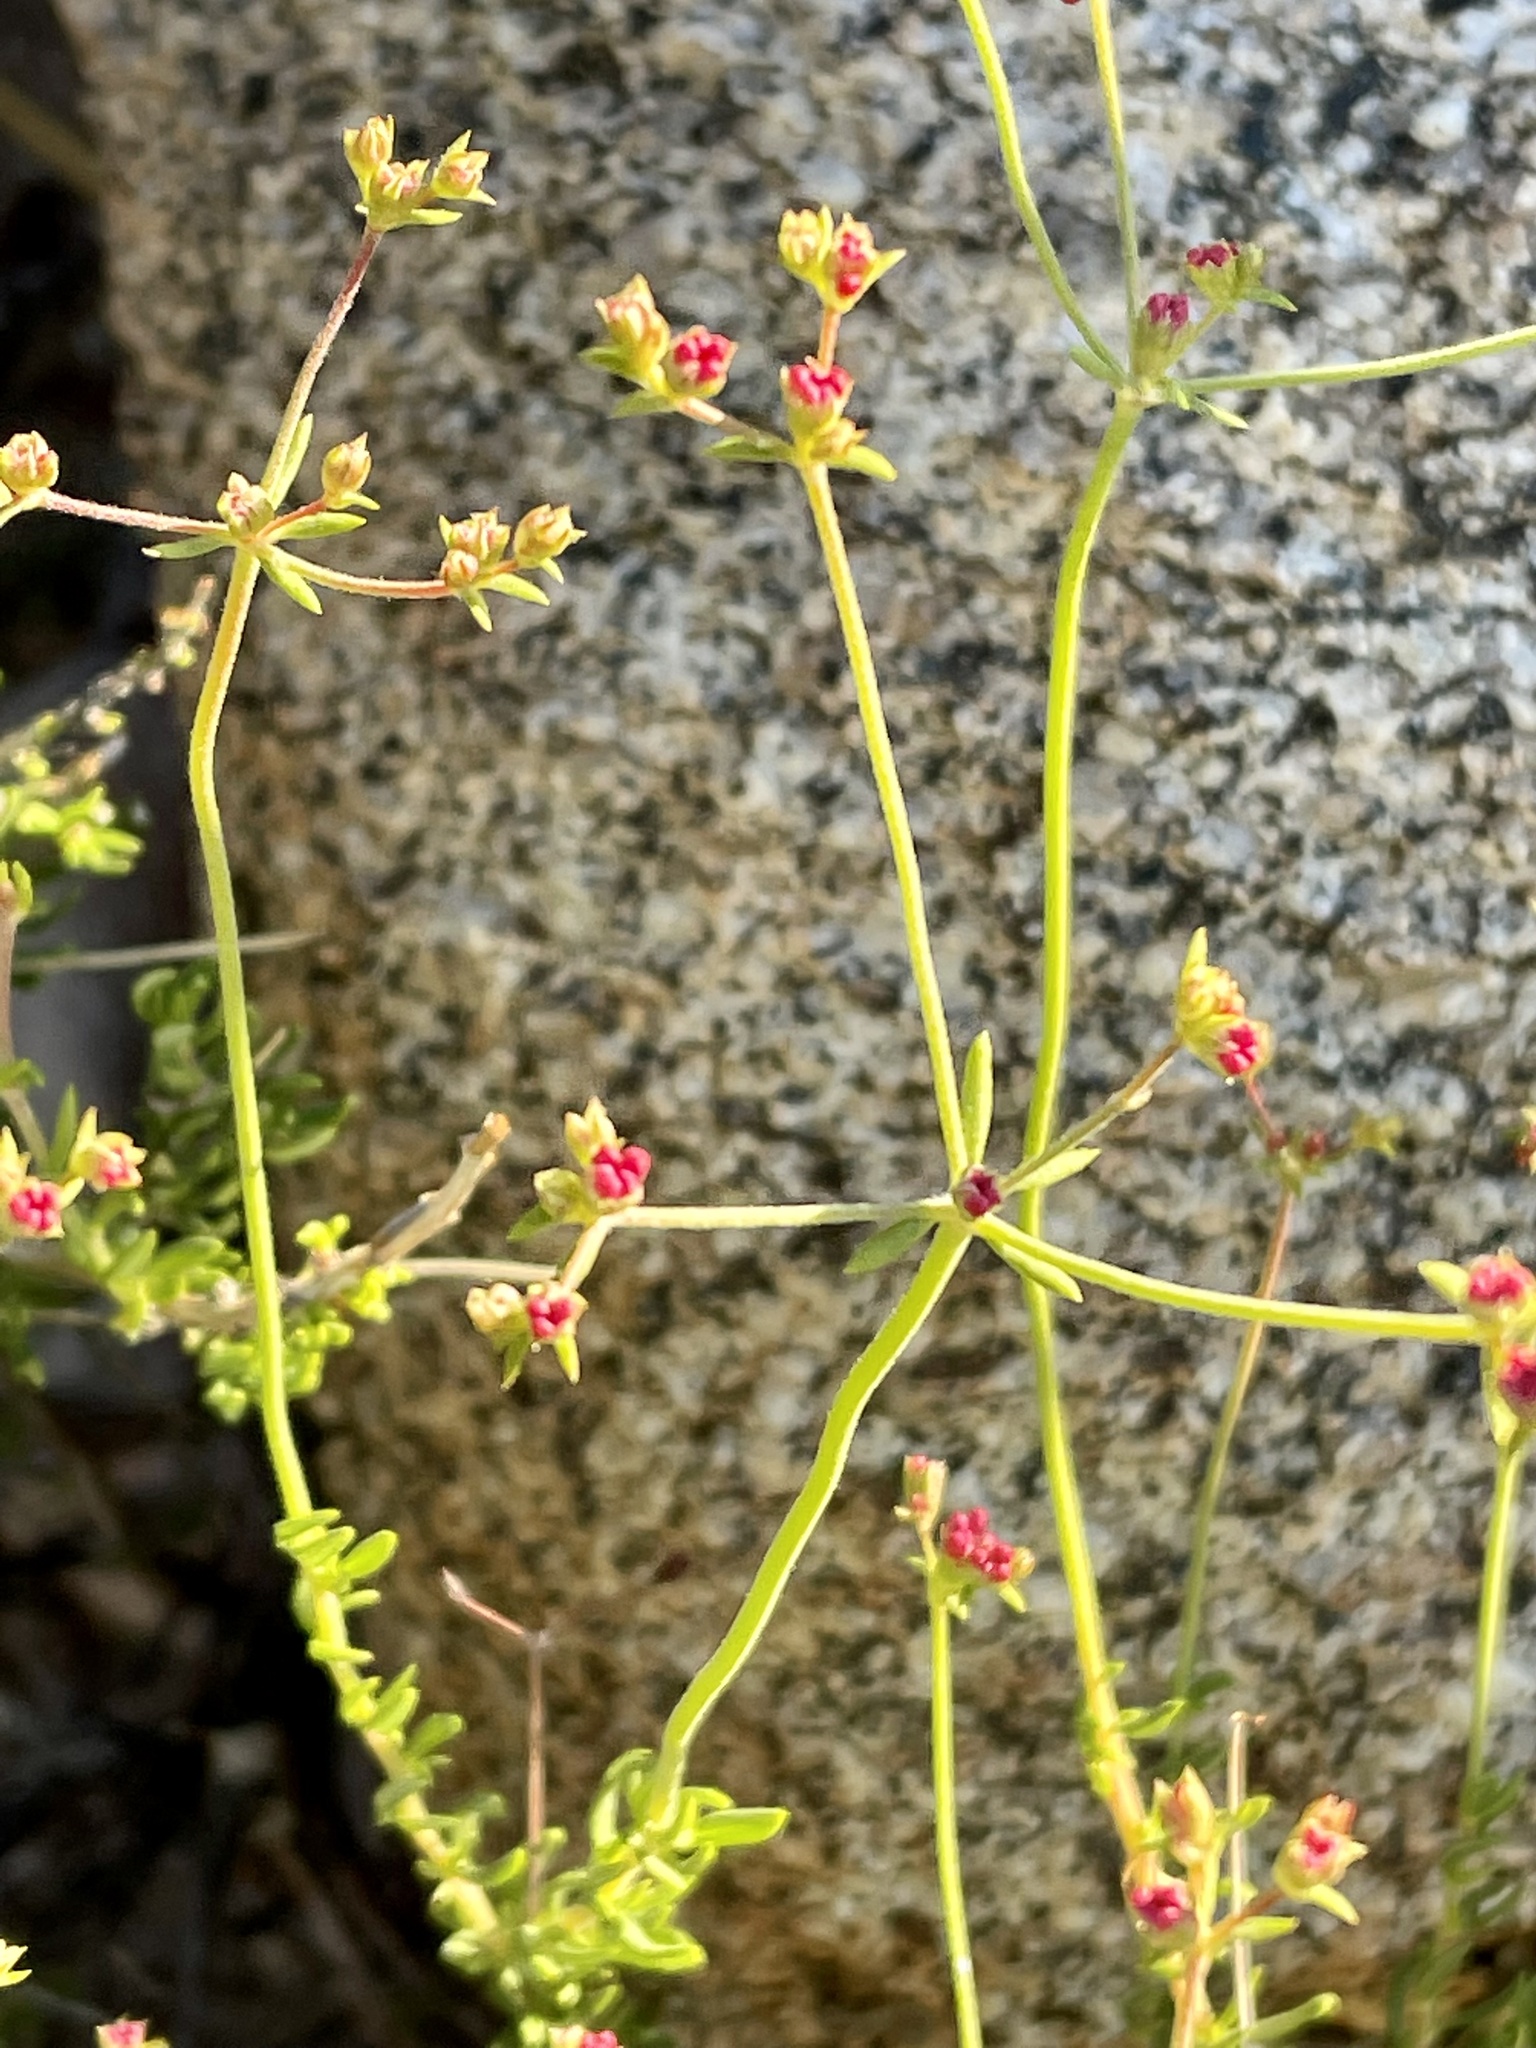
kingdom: Plantae
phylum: Tracheophyta
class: Magnoliopsida
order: Caryophyllales
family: Polygonaceae
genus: Eriogonum
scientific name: Eriogonum fasciculatum
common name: California wild buckwheat
